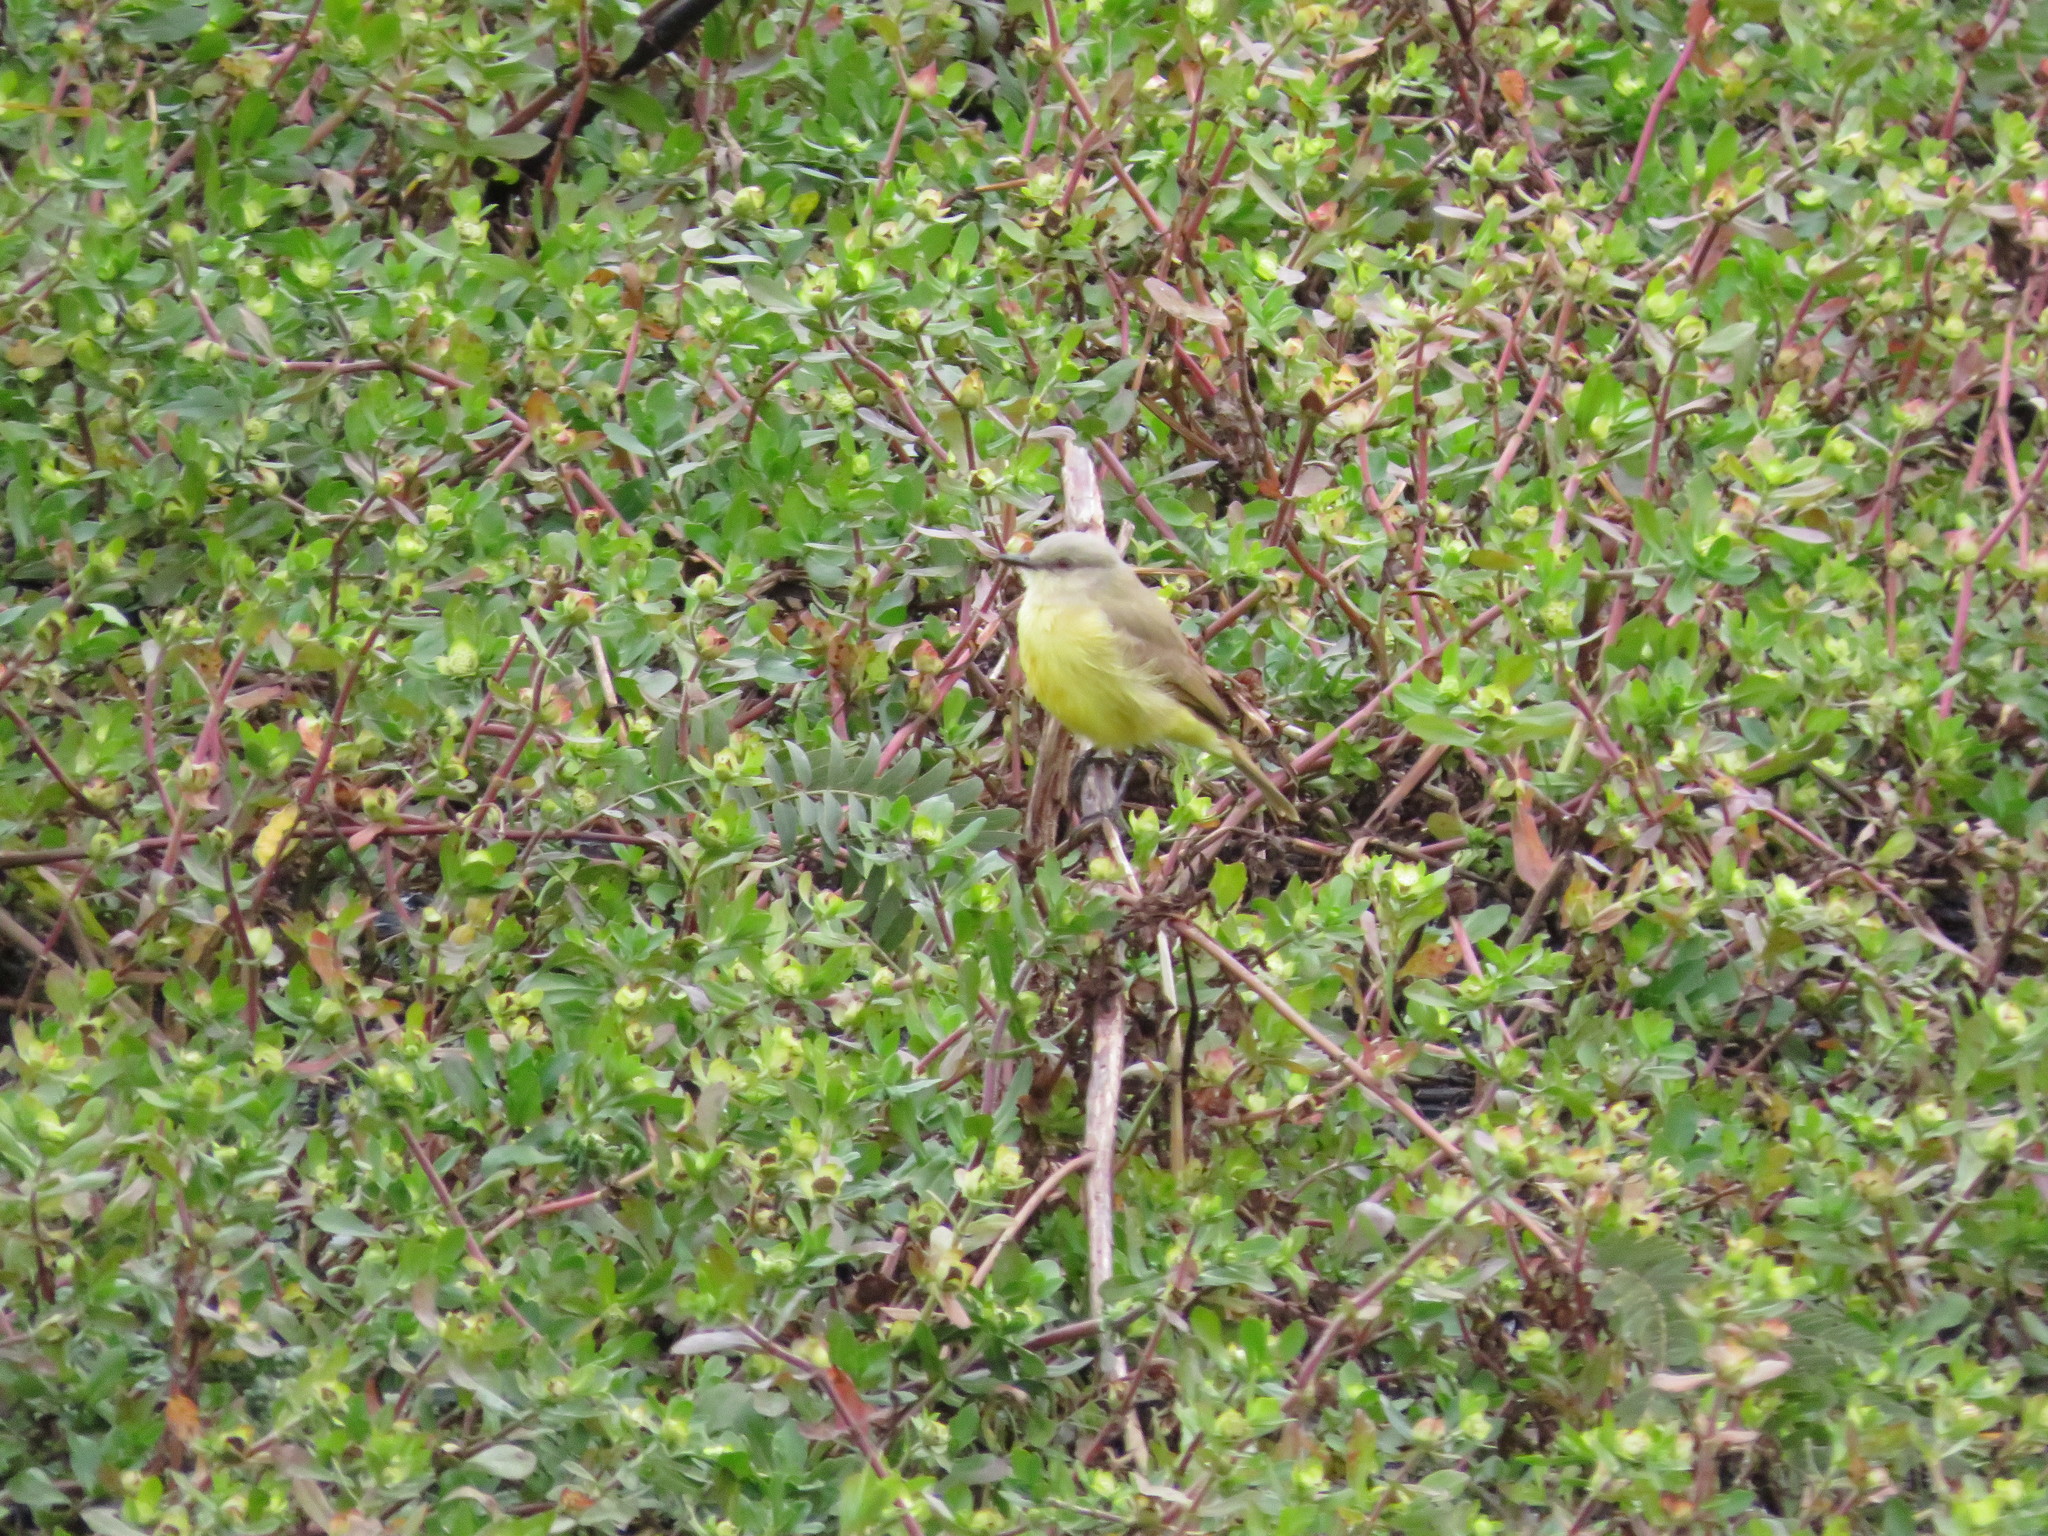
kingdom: Animalia
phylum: Chordata
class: Aves
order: Passeriformes
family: Tyrannidae
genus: Machetornis
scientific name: Machetornis rixosa
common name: Cattle tyrant
